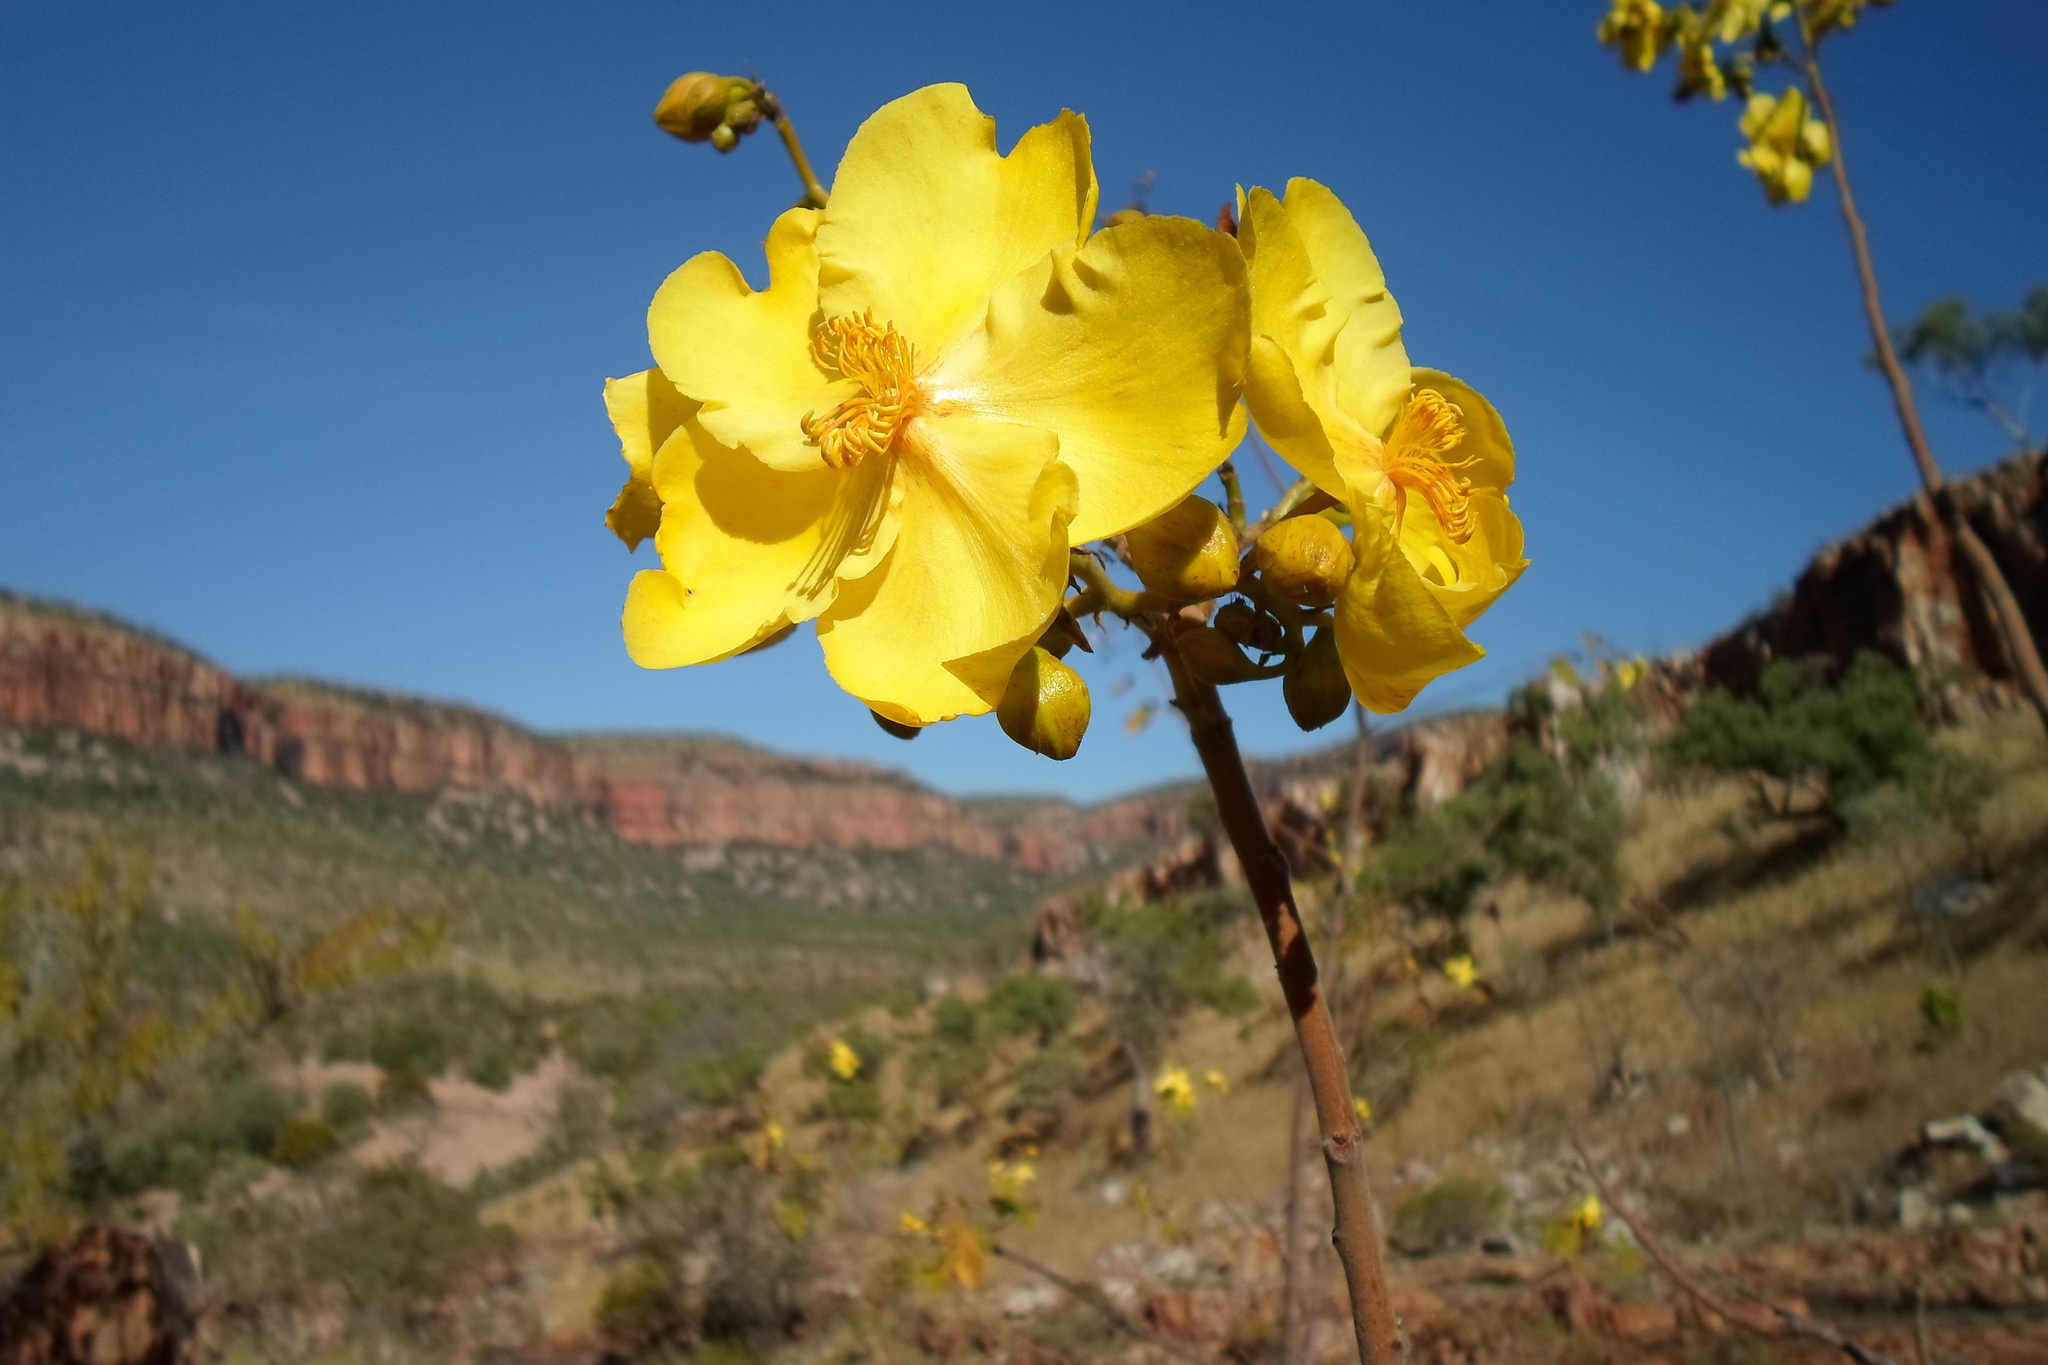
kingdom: Plantae
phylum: Tracheophyta
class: Magnoliopsida
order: Malvales
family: Cochlospermaceae
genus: Cochlospermum
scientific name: Cochlospermum fraseri
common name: Kapokbush
